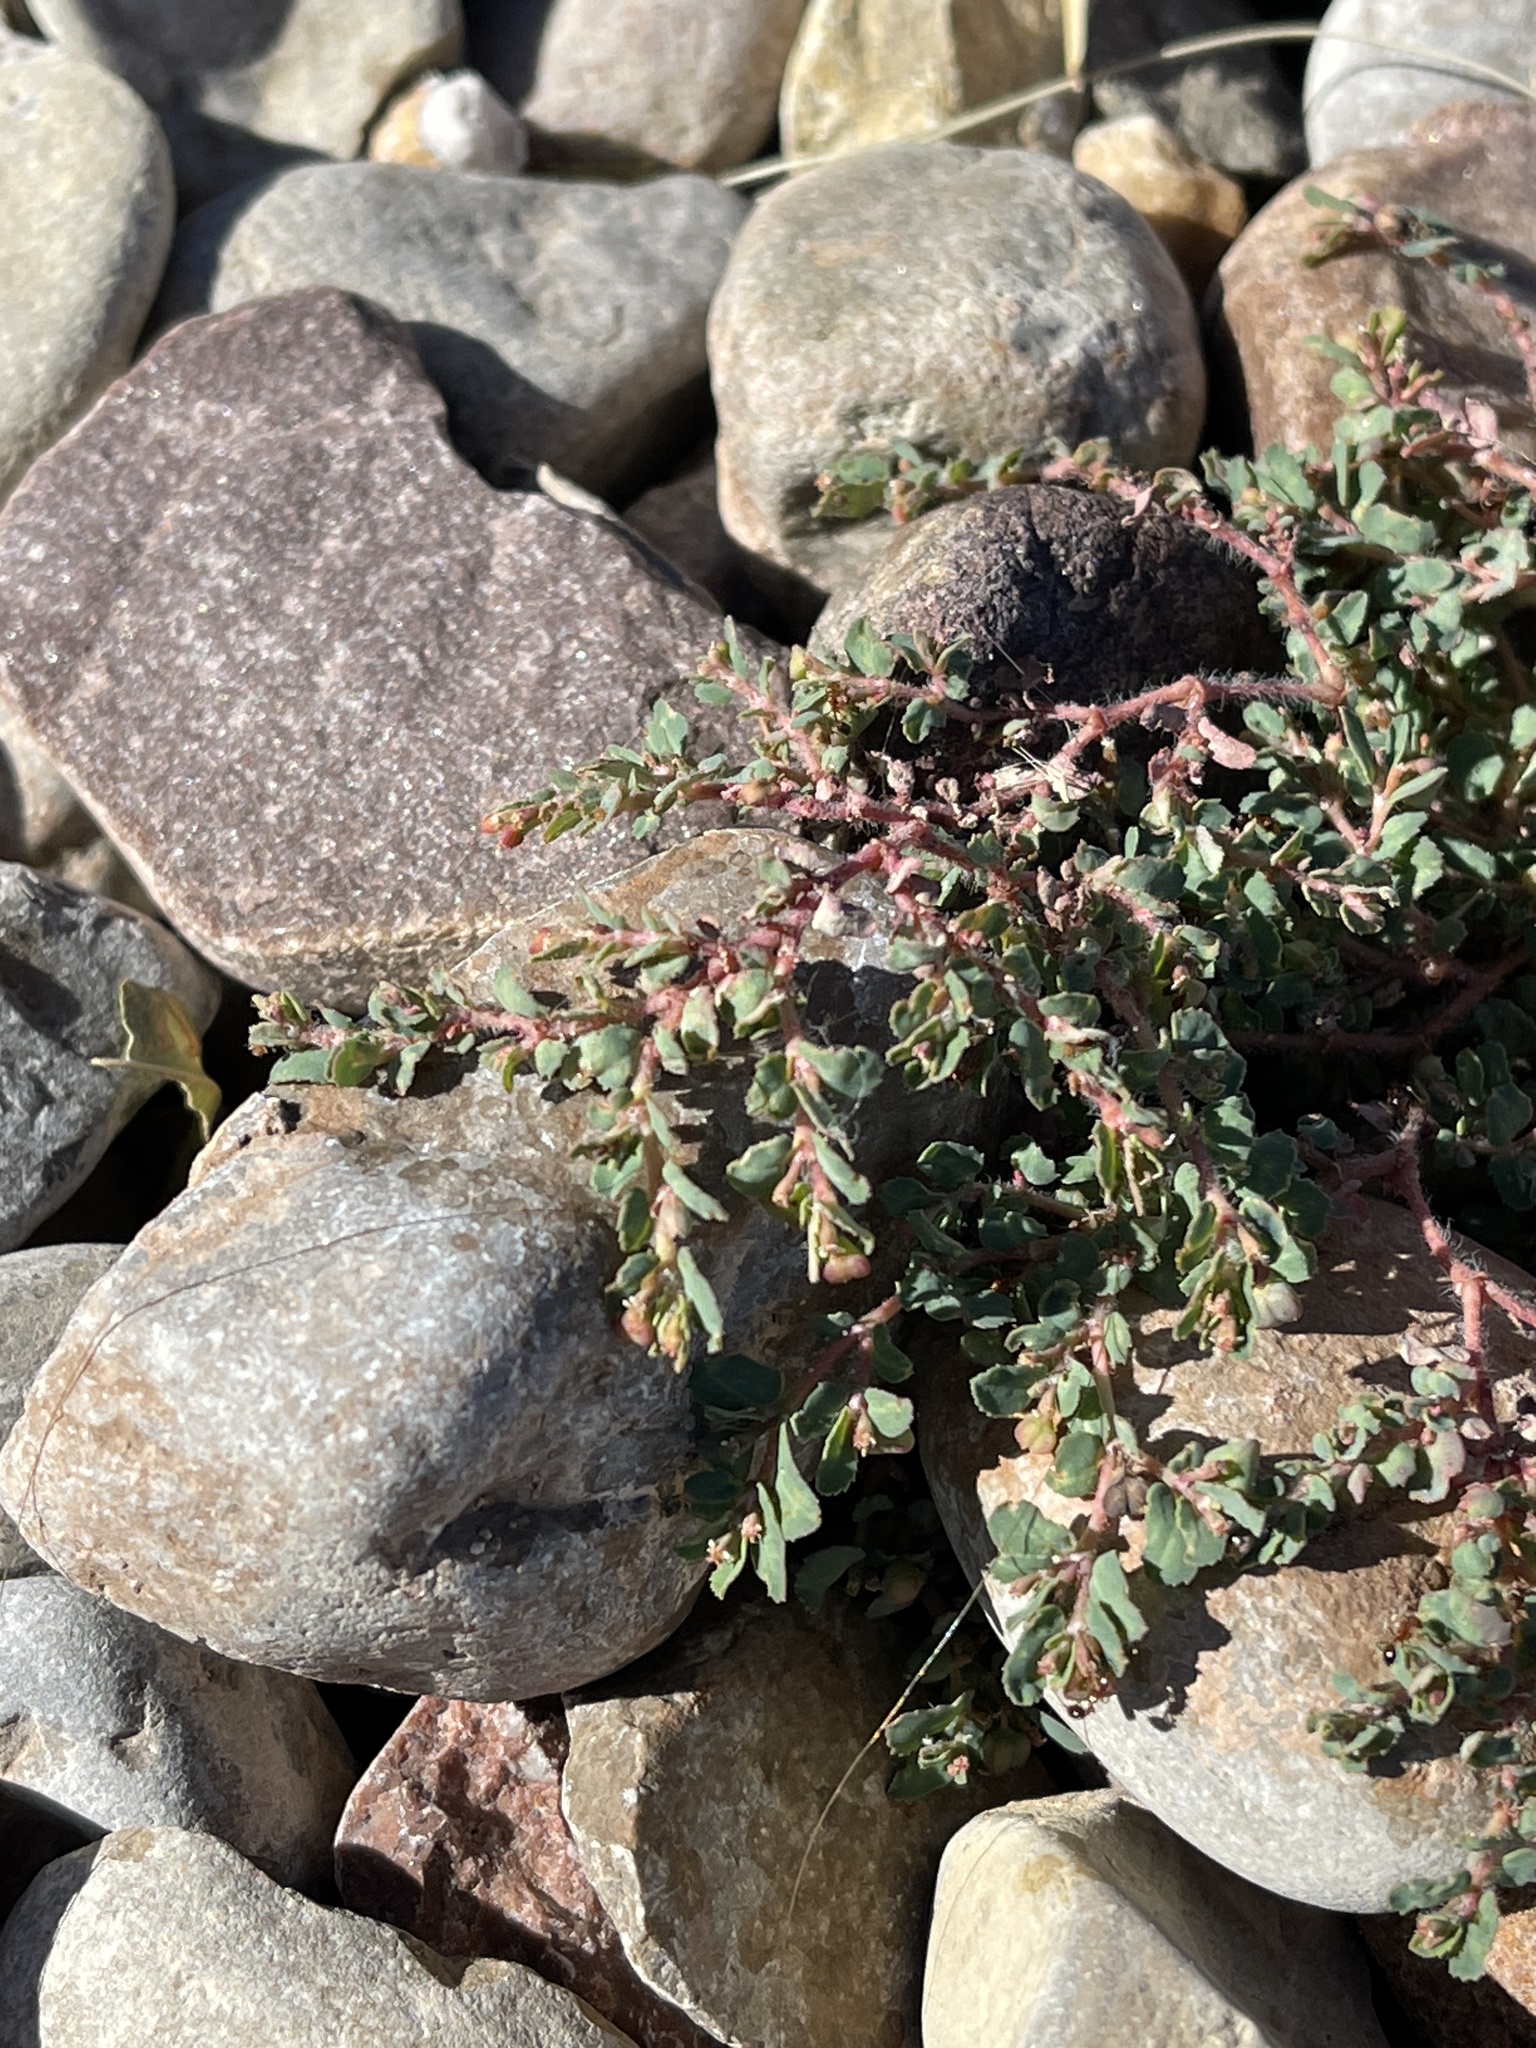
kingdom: Plantae
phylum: Tracheophyta
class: Magnoliopsida
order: Malpighiales
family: Euphorbiaceae
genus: Euphorbia
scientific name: Euphorbia serrula
